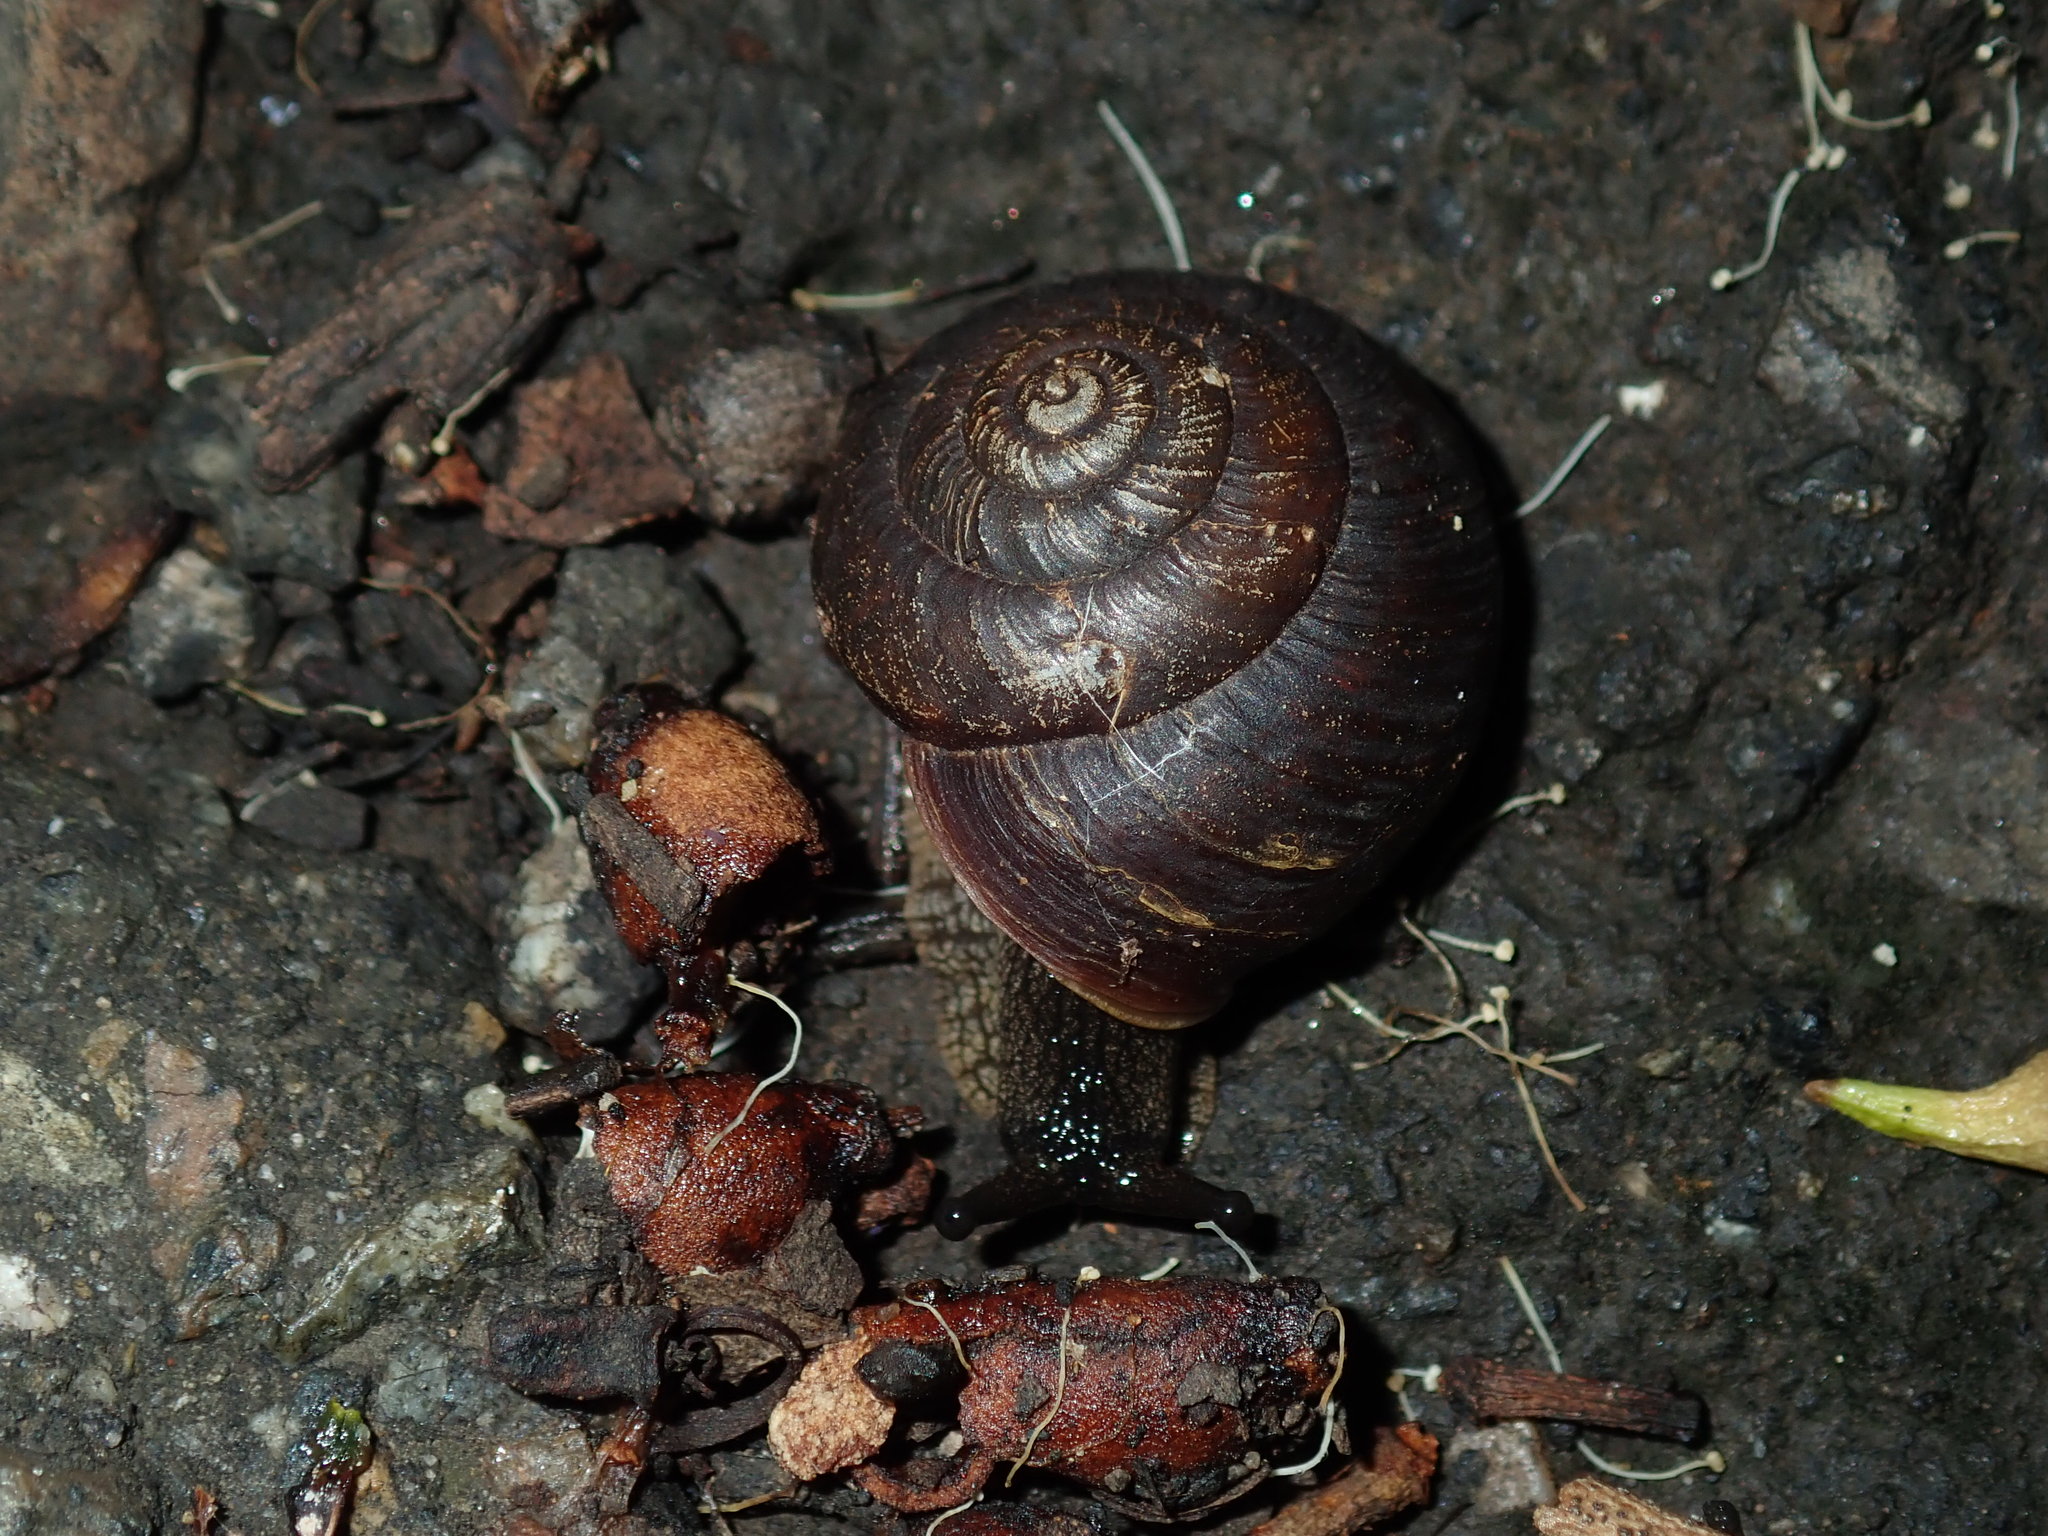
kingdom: Animalia
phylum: Mollusca
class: Gastropoda
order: Stylommatophora
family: Camaenidae
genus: Sauroconcha
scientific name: Sauroconcha sheai
